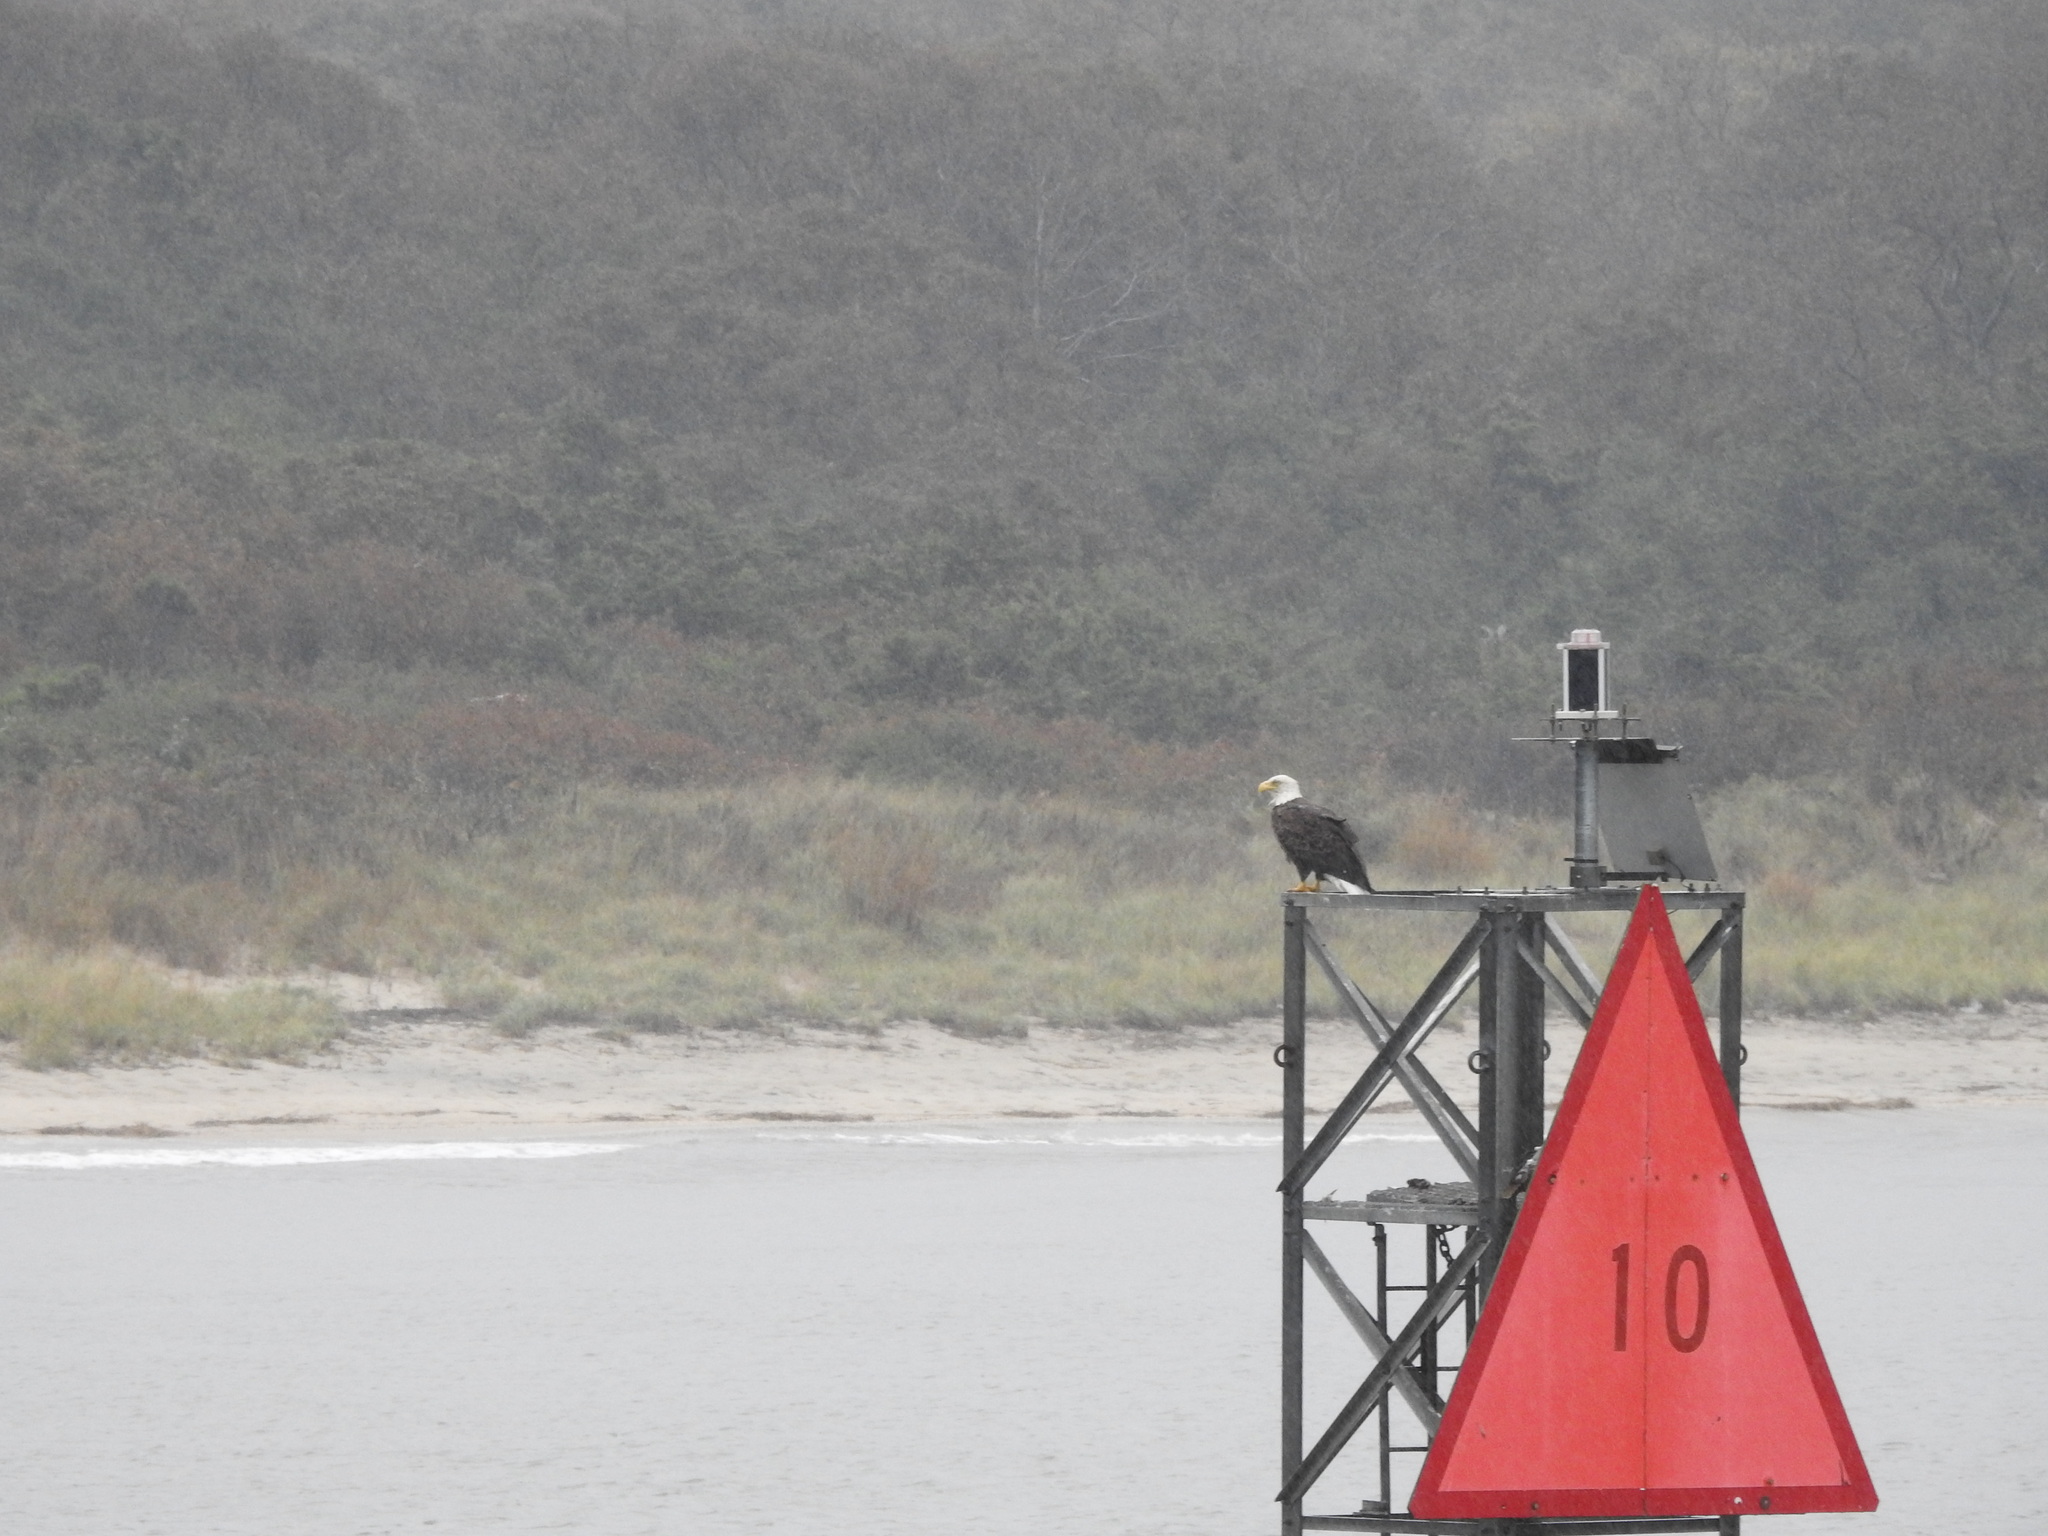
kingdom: Animalia
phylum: Chordata
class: Aves
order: Accipitriformes
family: Accipitridae
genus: Haliaeetus
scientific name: Haliaeetus leucocephalus
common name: Bald eagle
